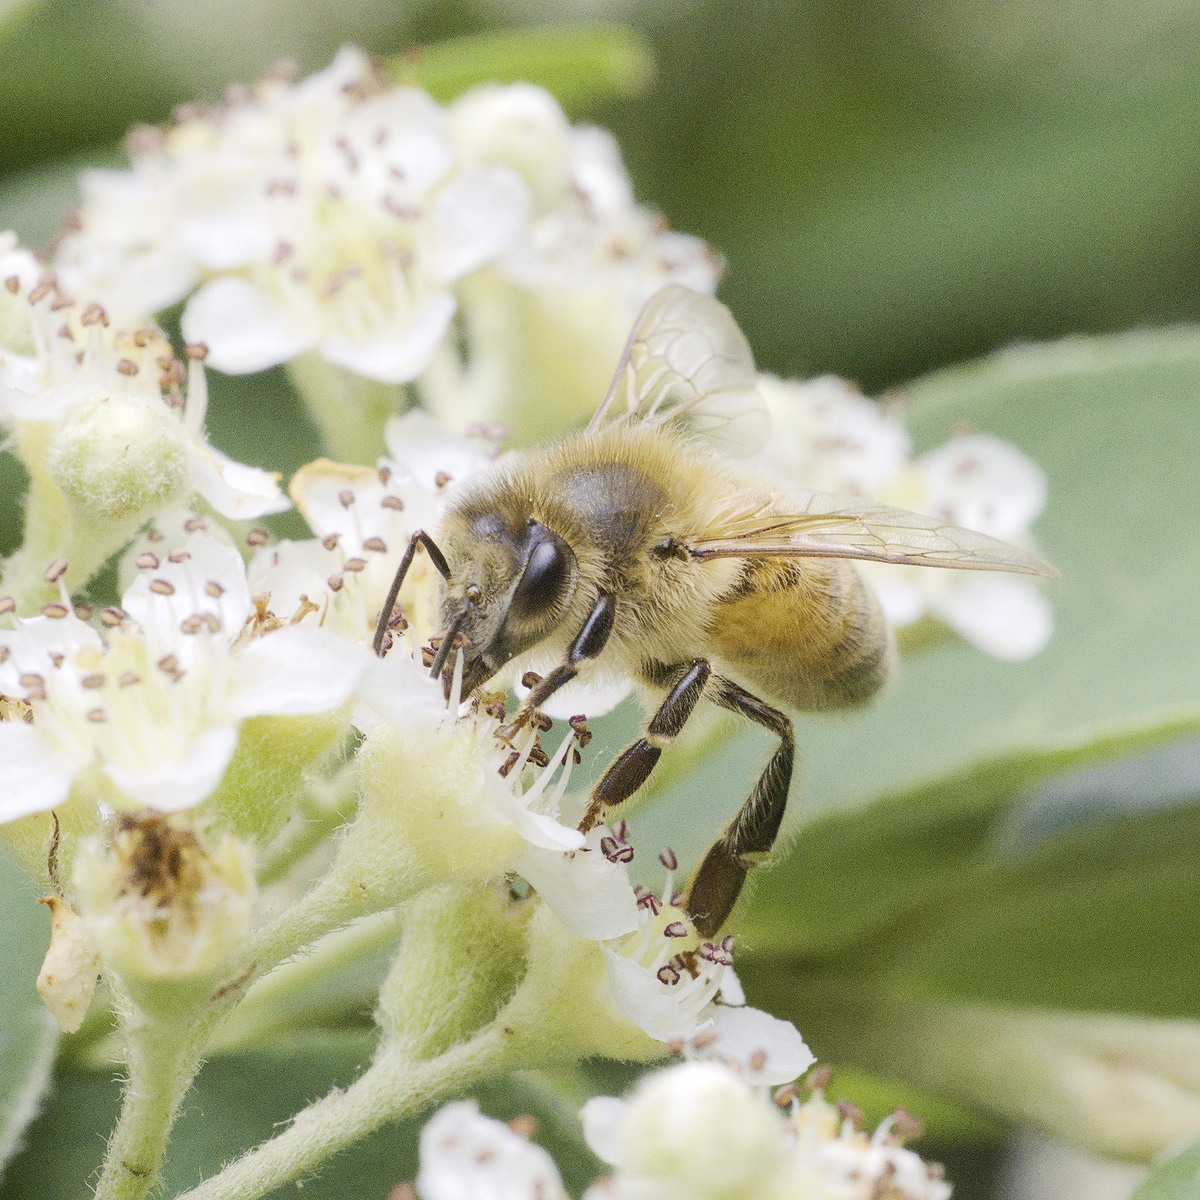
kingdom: Animalia
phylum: Arthropoda
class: Insecta
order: Hymenoptera
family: Apidae
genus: Apis
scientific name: Apis mellifera
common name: Honey bee
